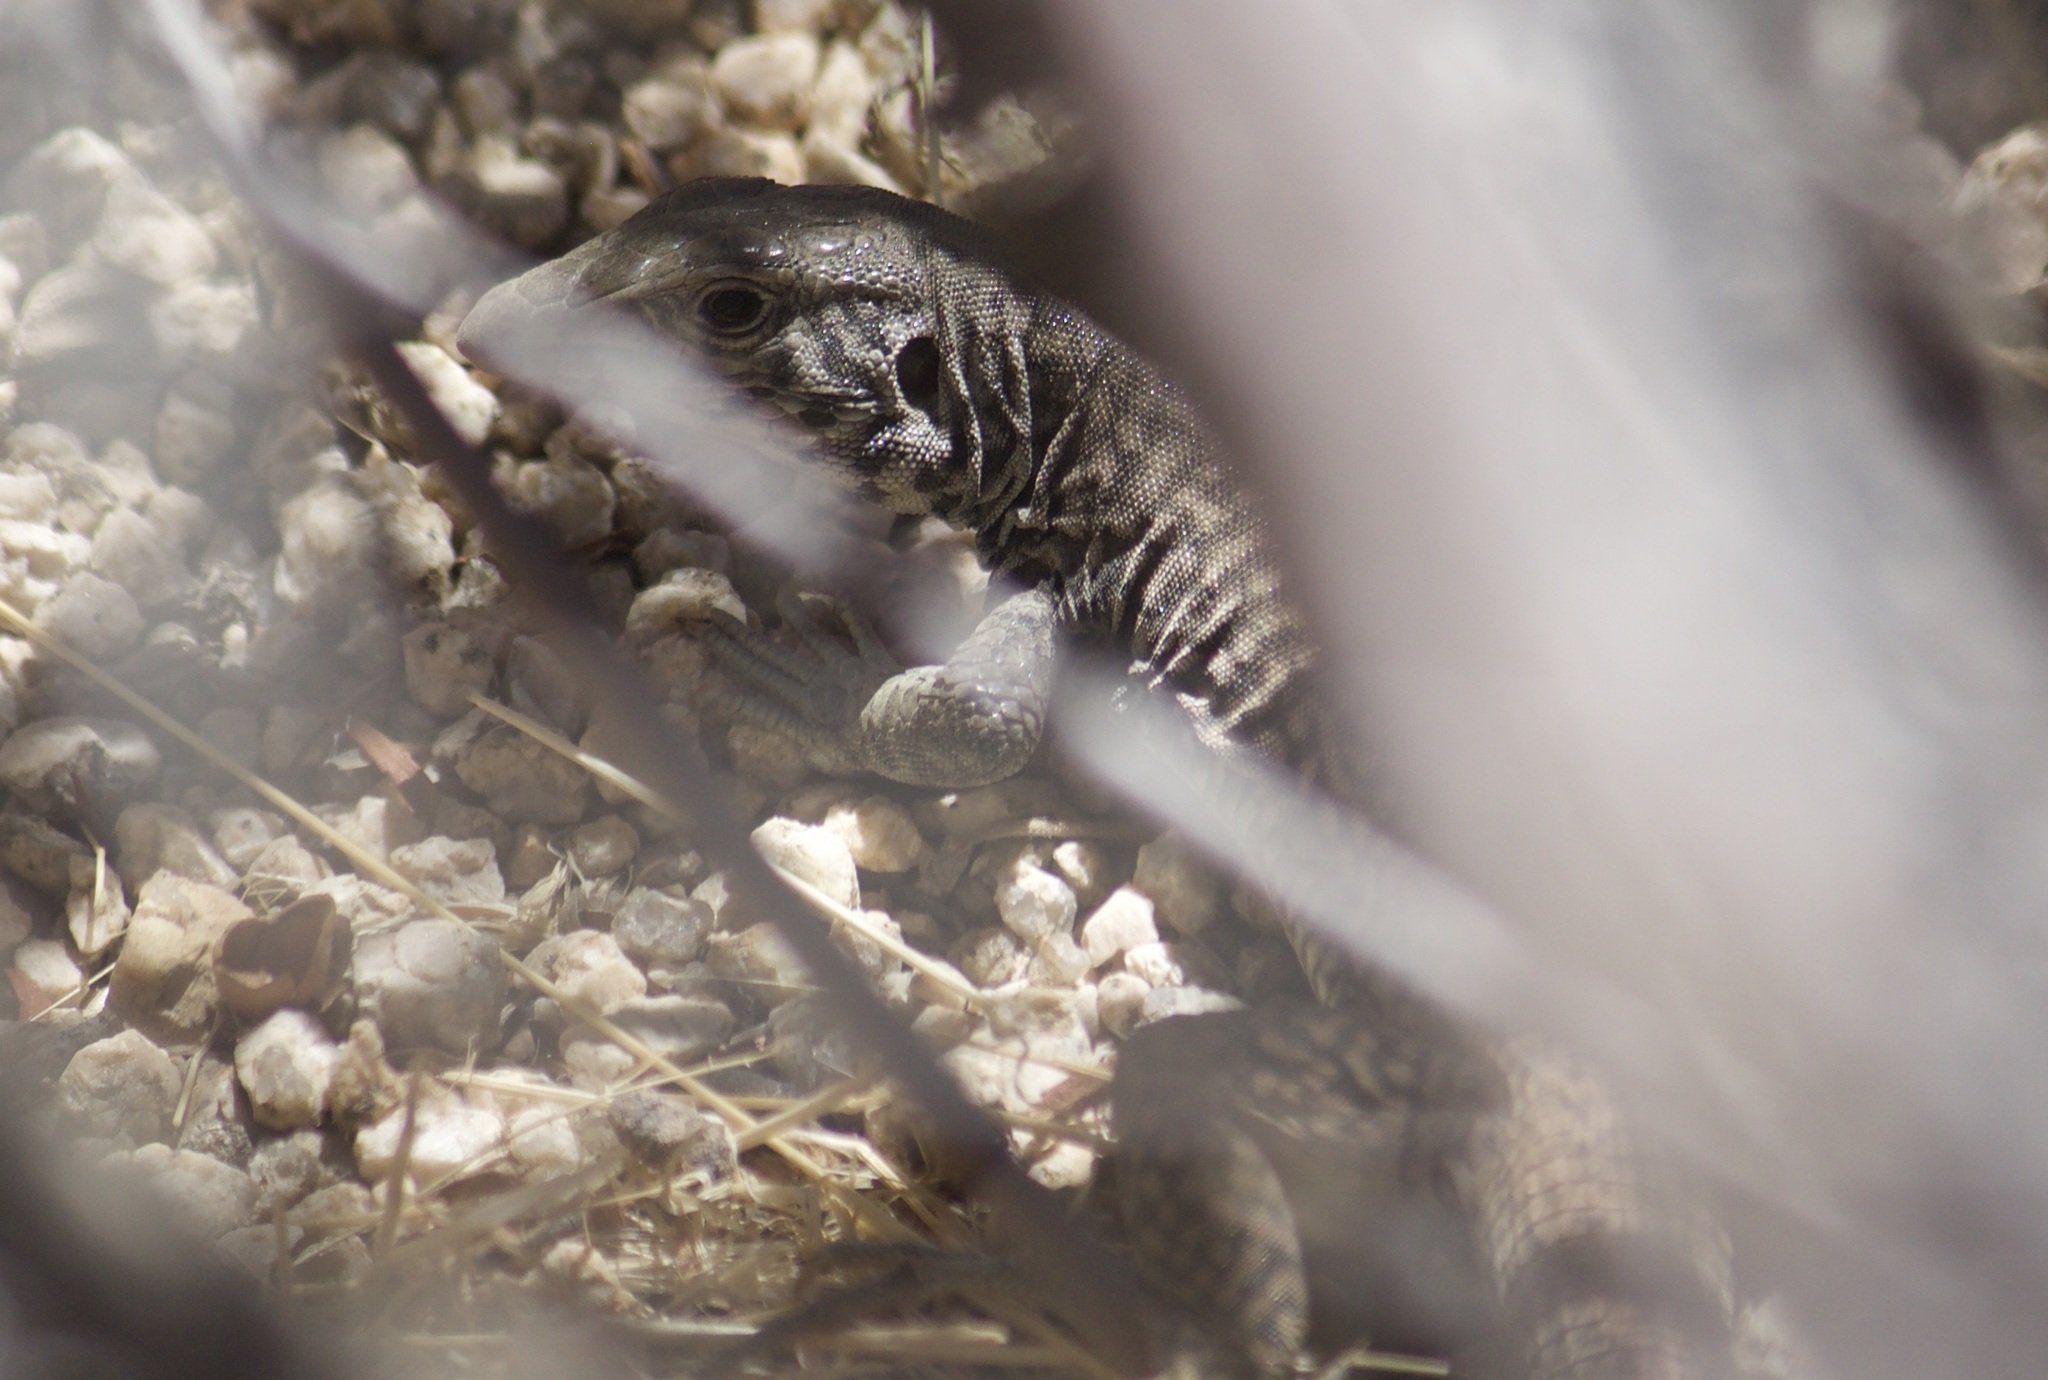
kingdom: Animalia
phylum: Chordata
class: Squamata
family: Teiidae
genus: Aspidoscelis
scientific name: Aspidoscelis tigris
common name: Tiger whiptail
